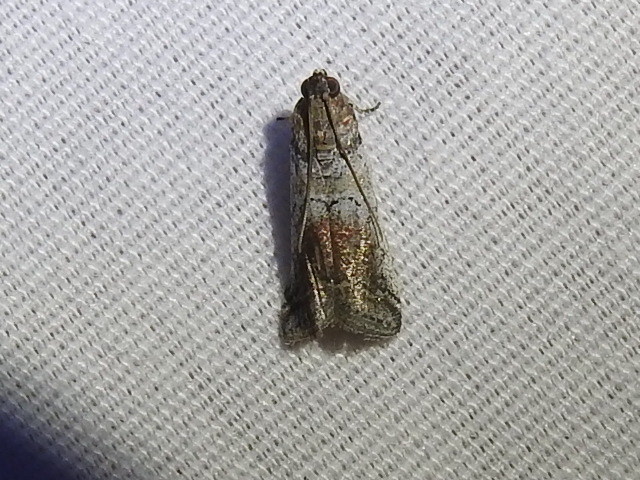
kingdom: Animalia
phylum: Arthropoda
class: Insecta
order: Lepidoptera
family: Pyralidae
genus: Chararica
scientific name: Chararica hystriculella
